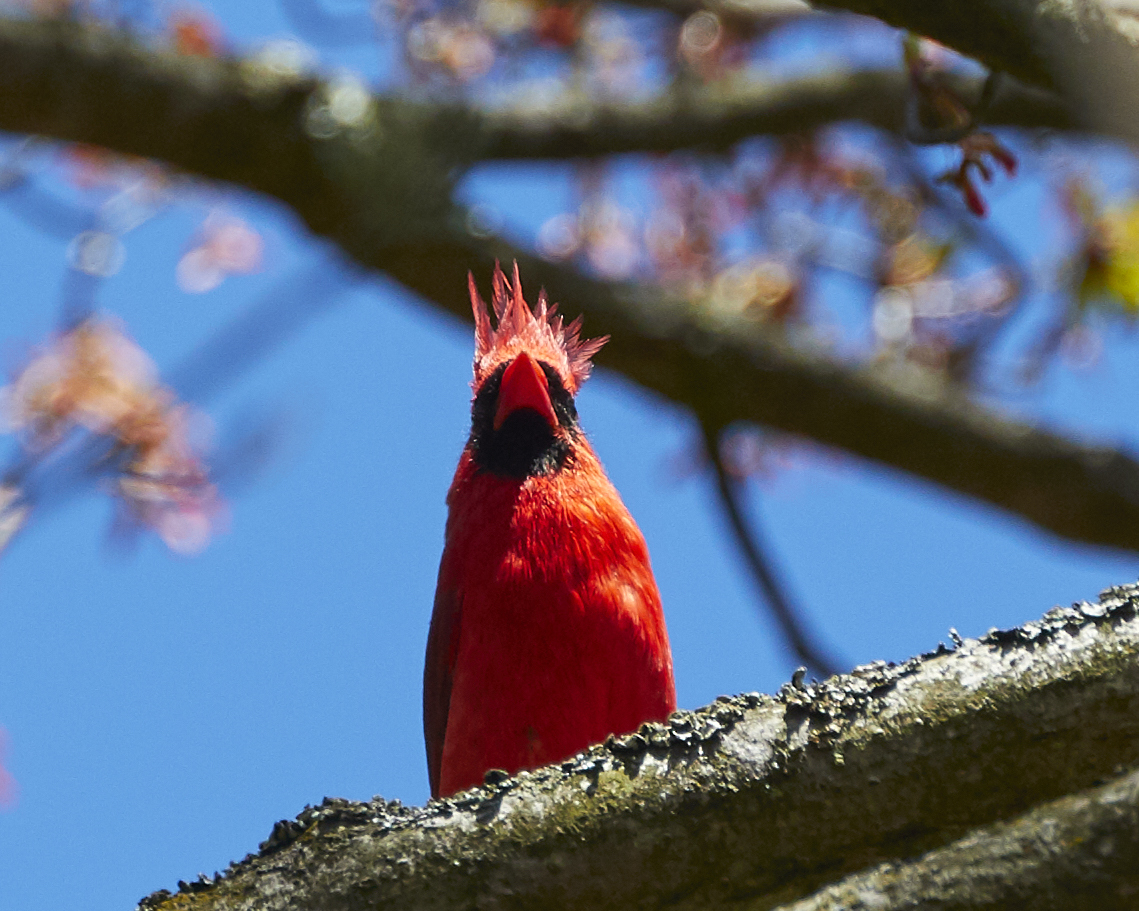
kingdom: Animalia
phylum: Chordata
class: Aves
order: Passeriformes
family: Cardinalidae
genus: Cardinalis
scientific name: Cardinalis cardinalis
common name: Northern cardinal
